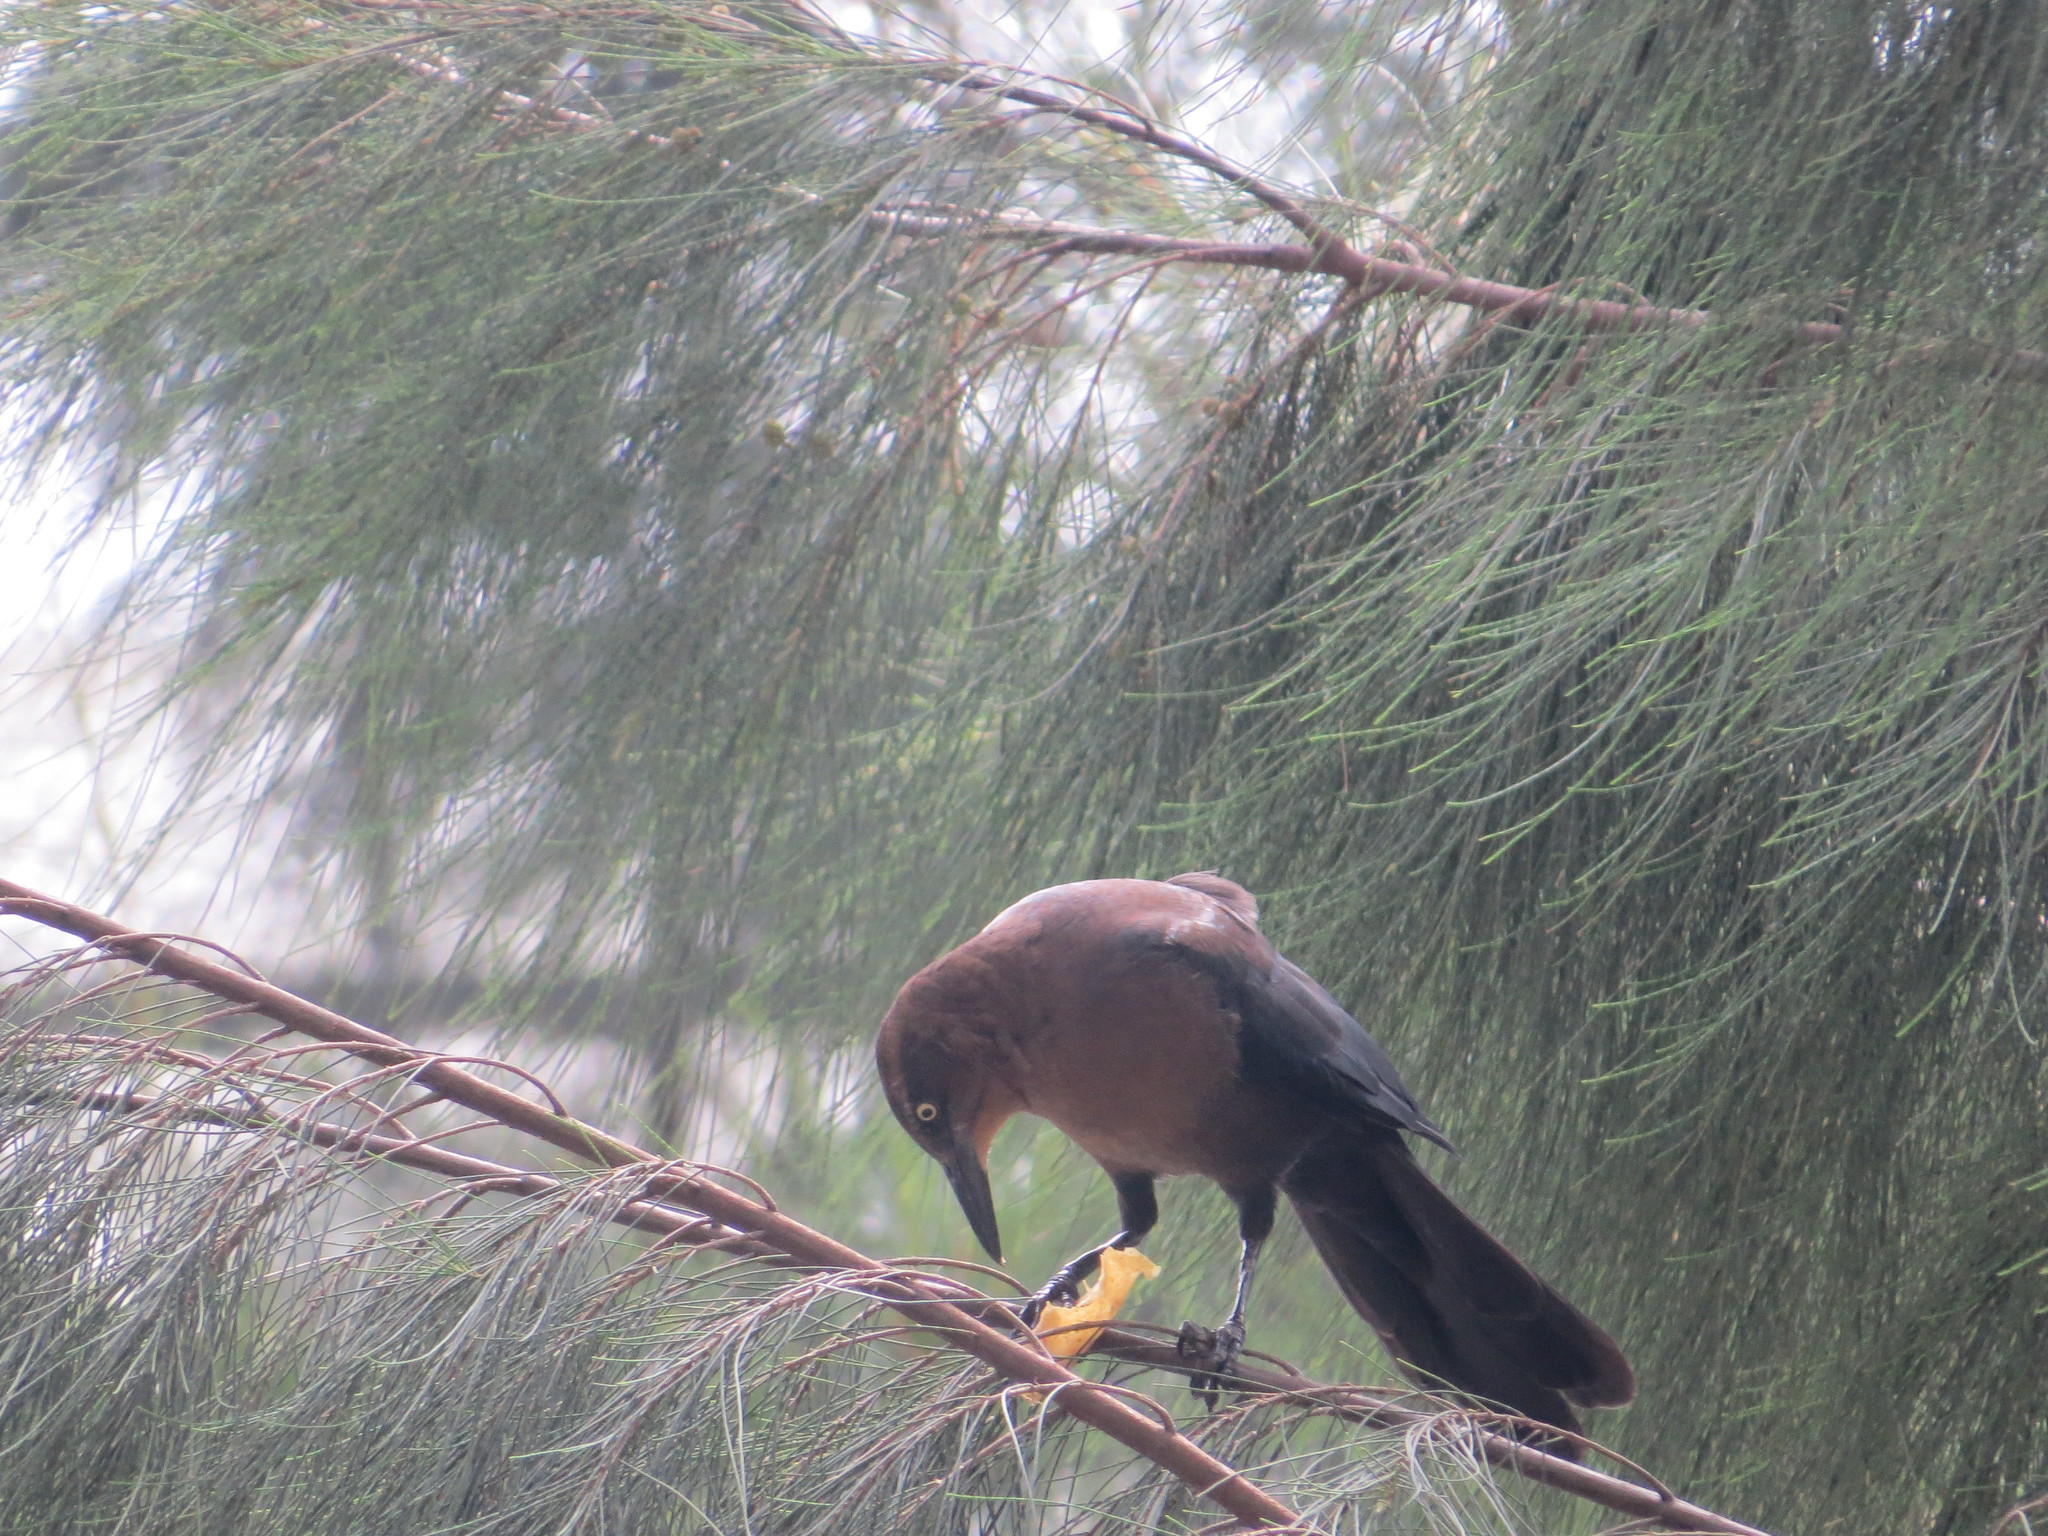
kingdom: Animalia
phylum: Chordata
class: Aves
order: Passeriformes
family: Icteridae
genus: Quiscalus
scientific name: Quiscalus mexicanus
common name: Great-tailed grackle
